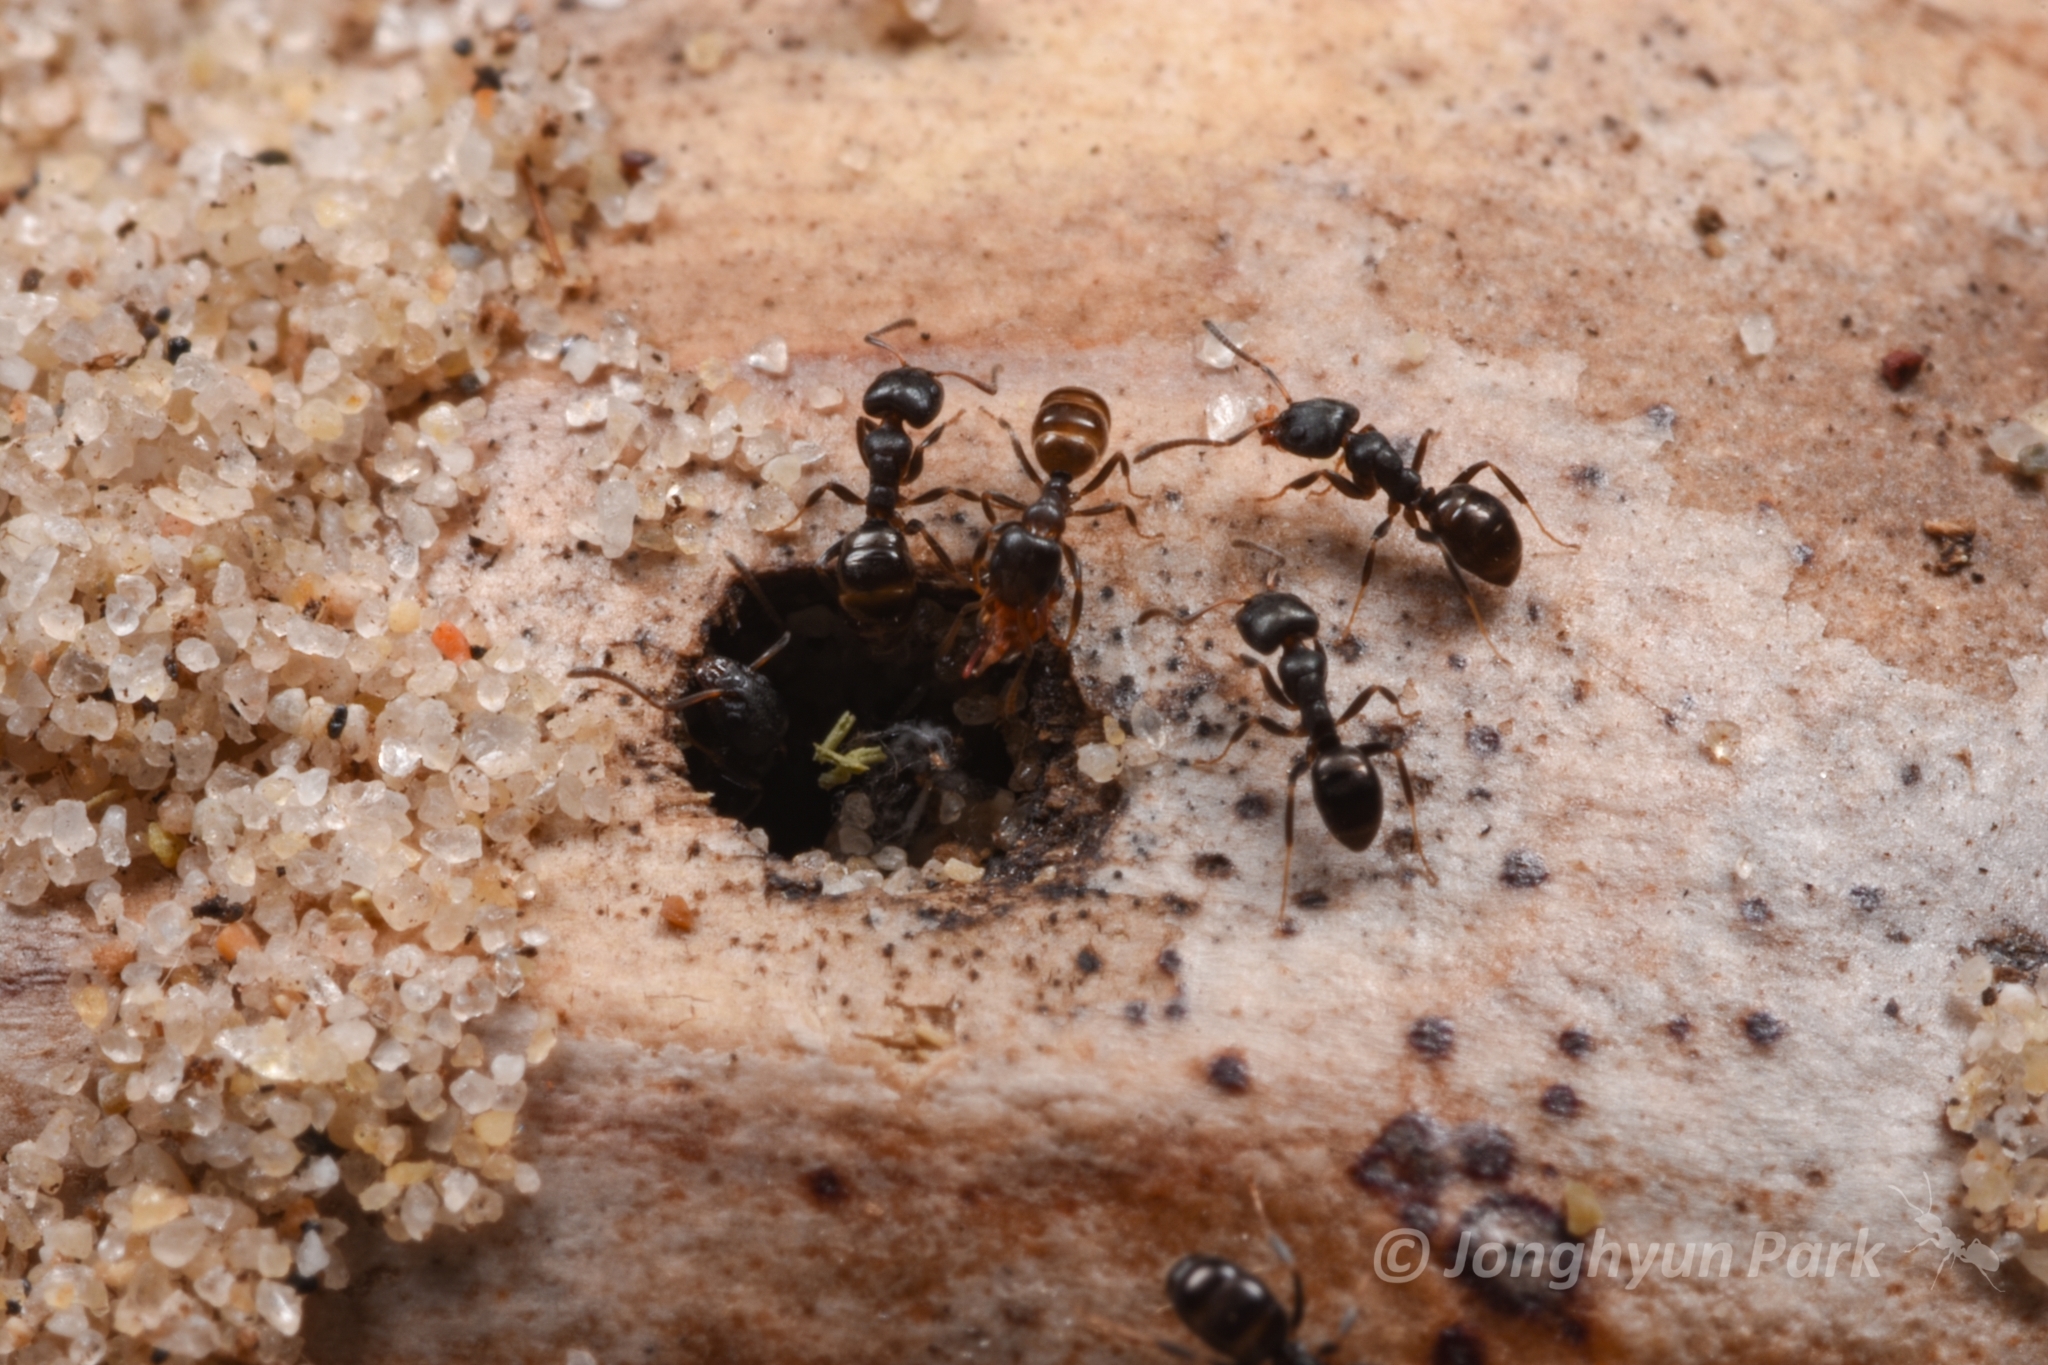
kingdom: Animalia
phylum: Arthropoda
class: Insecta
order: Hymenoptera
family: Formicidae
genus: Ochetellus
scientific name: Ochetellus glaber
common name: Ant
